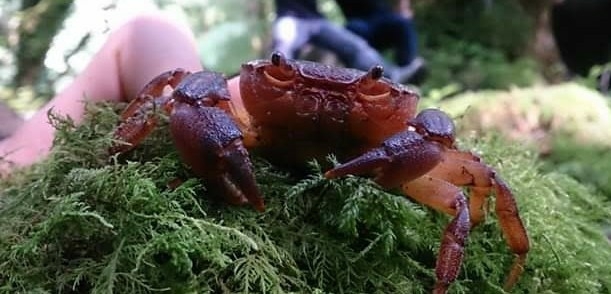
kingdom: Animalia
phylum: Arthropoda
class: Malacostraca
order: Decapoda
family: Potamidae
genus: Potamon
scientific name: Potamon transkaspicum
